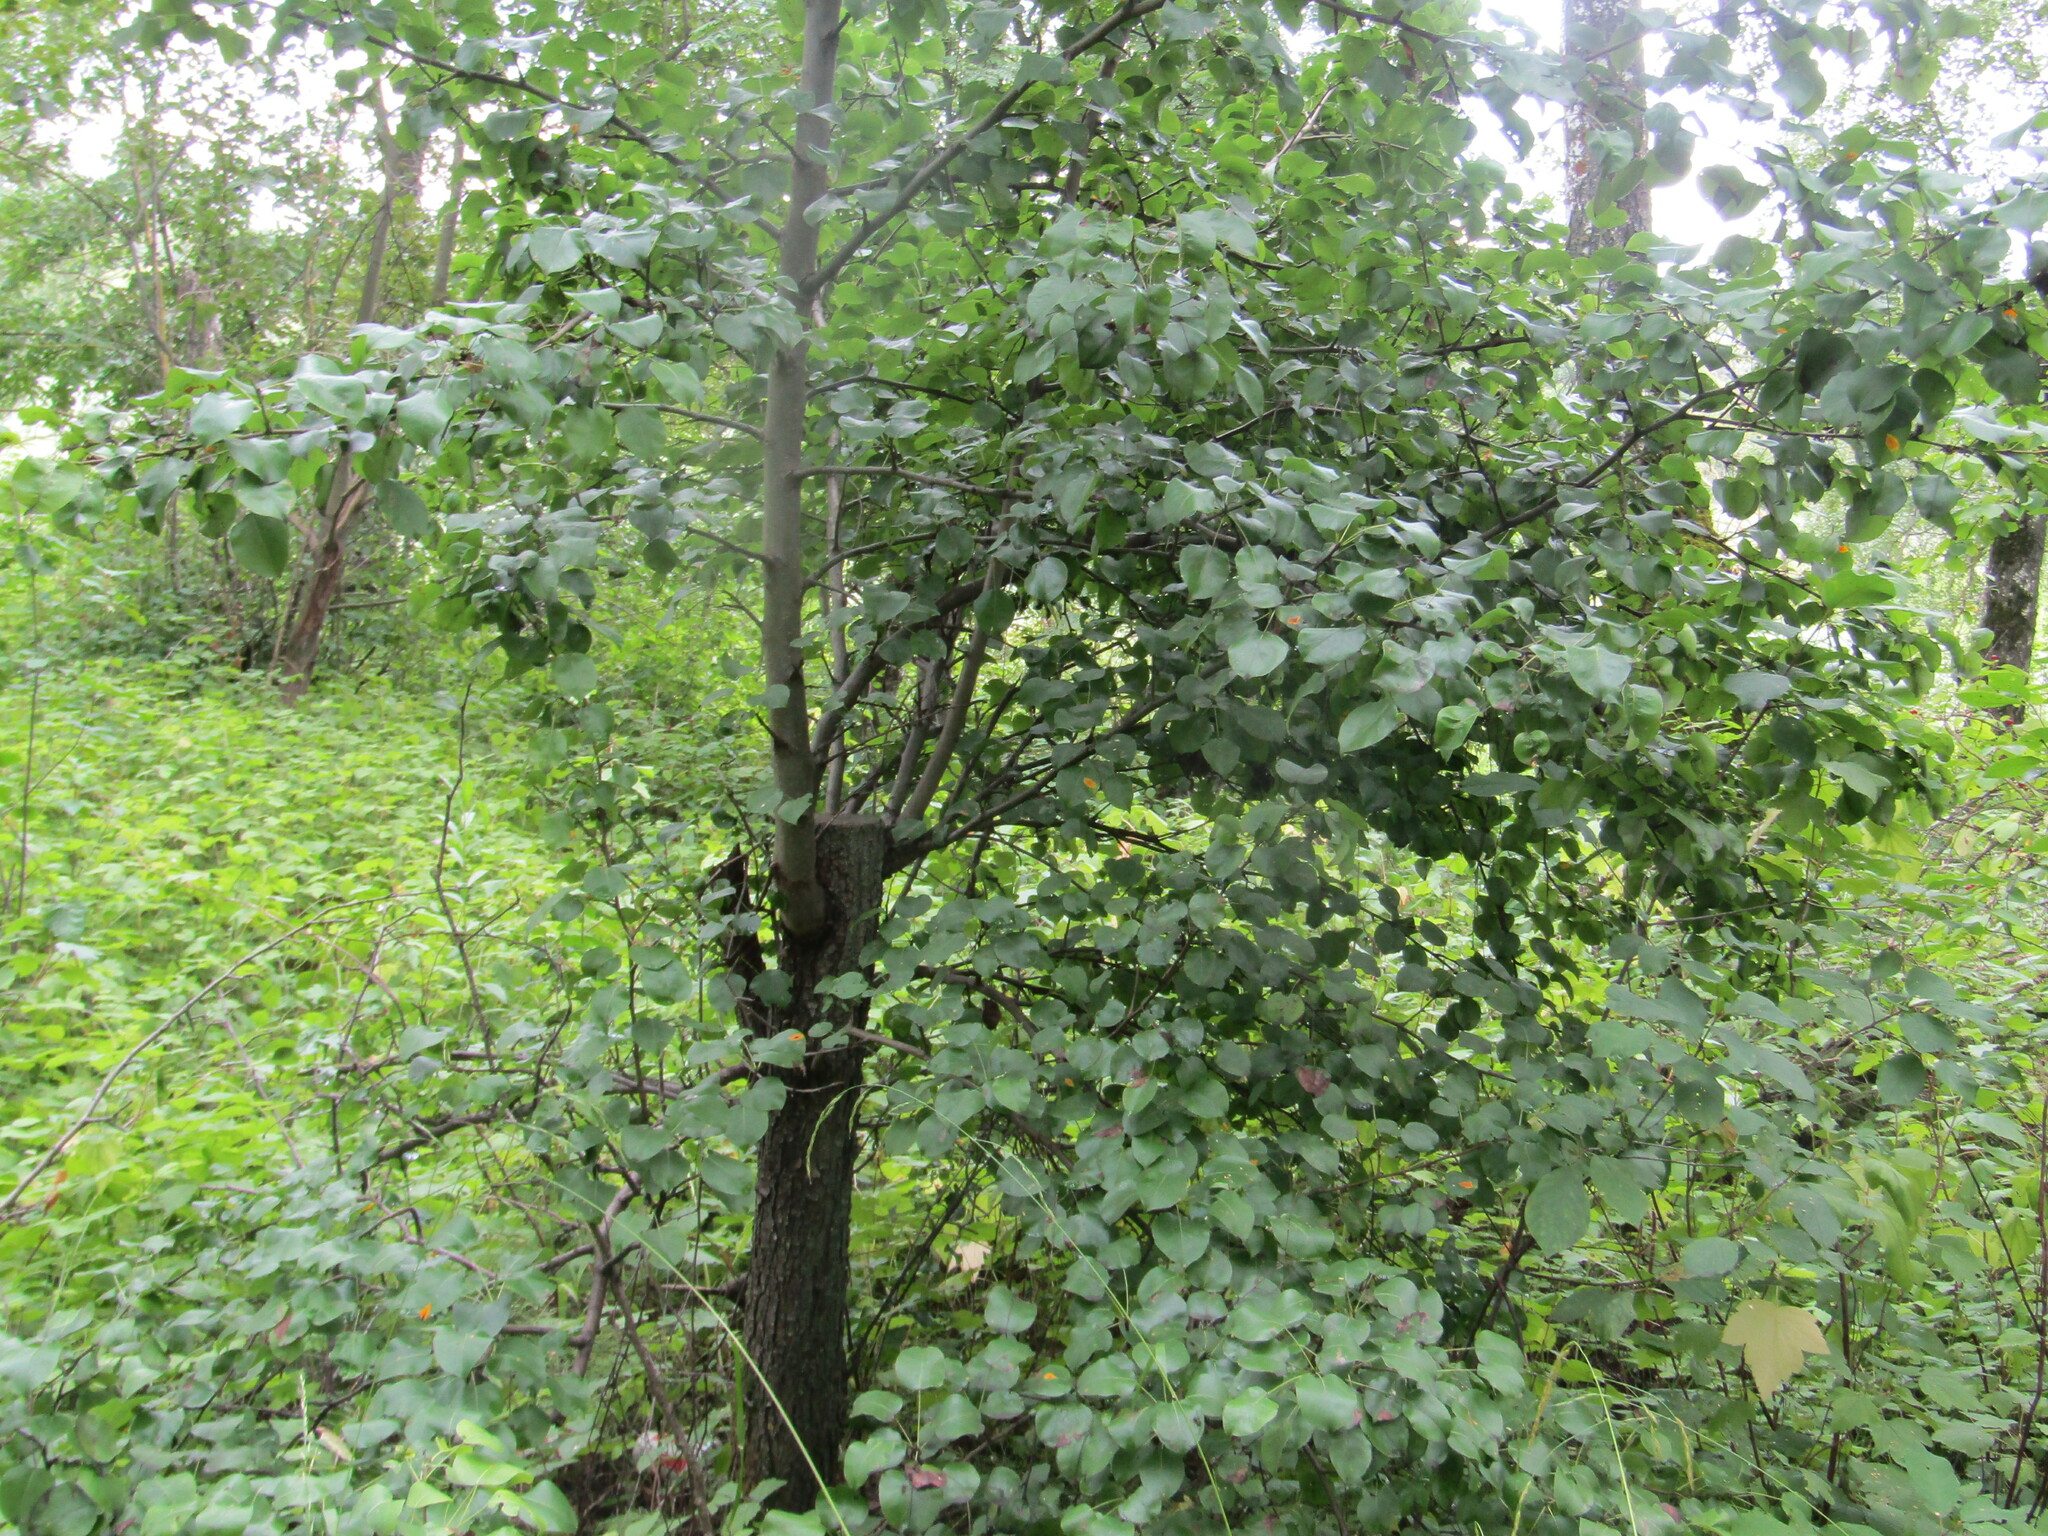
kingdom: Plantae
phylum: Tracheophyta
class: Magnoliopsida
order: Rosales
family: Rosaceae
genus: Pyrus
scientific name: Pyrus communis
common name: Pear
